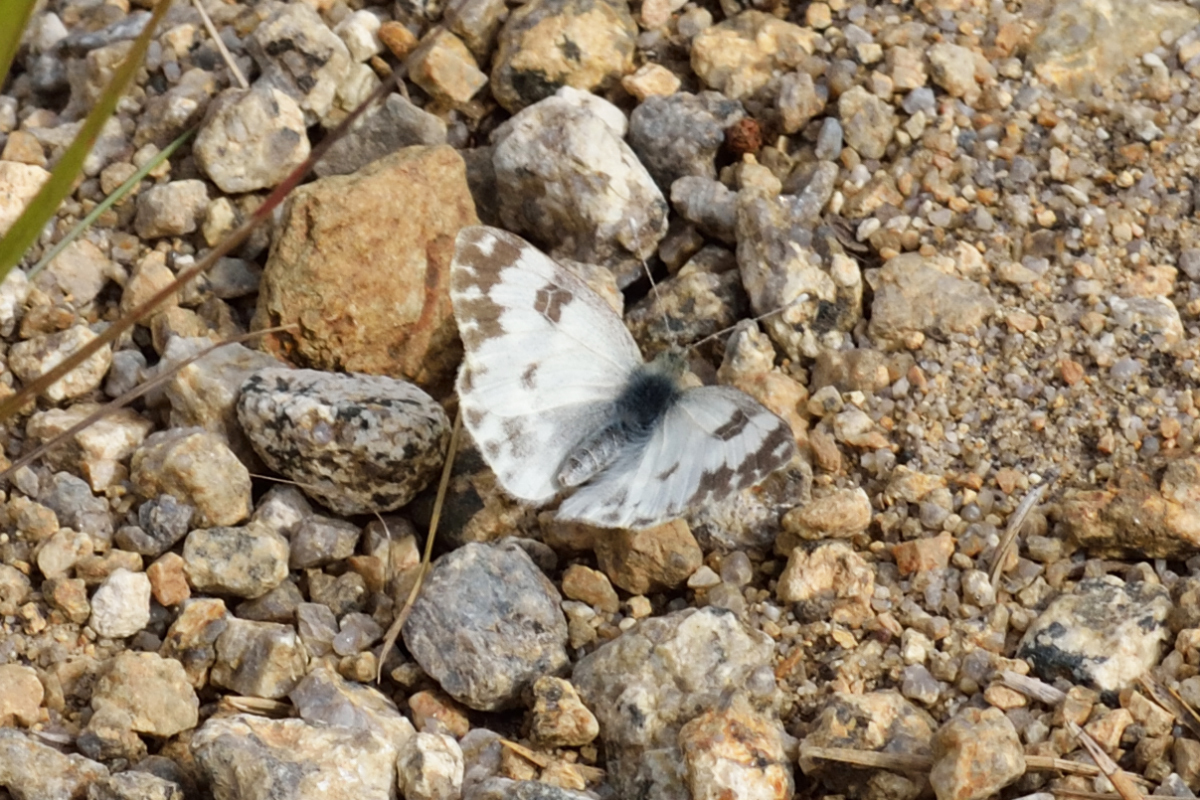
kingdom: Animalia
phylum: Arthropoda
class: Insecta
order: Lepidoptera
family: Pieridae
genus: Pontia
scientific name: Pontia edusa
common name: Eastern bath white
